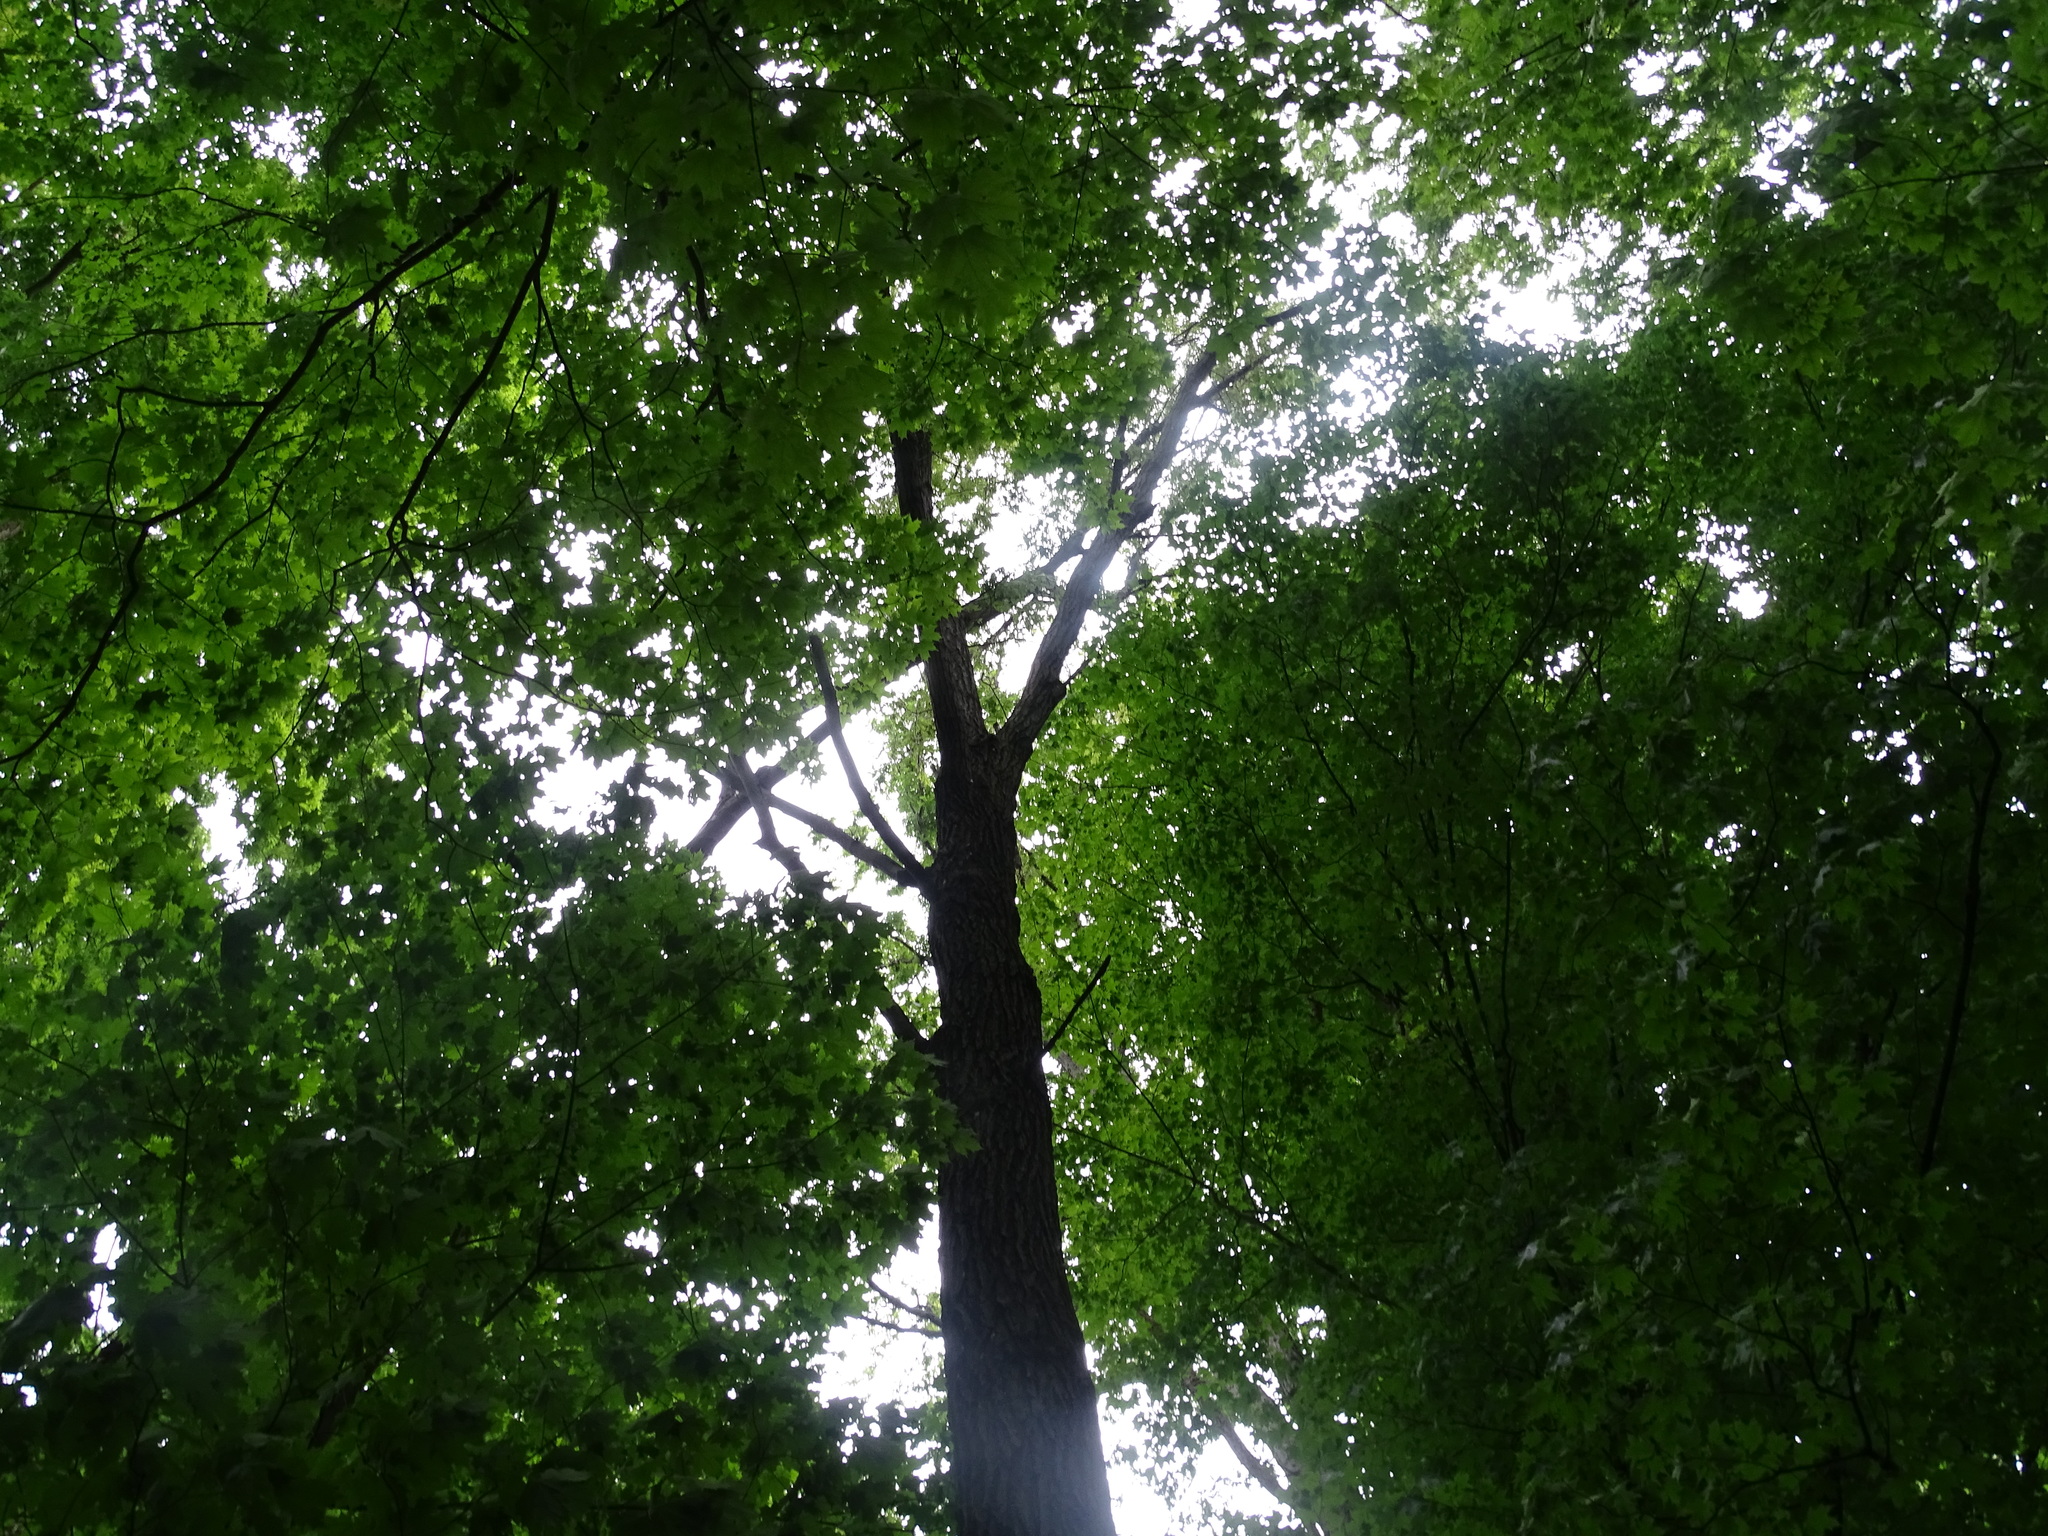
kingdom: Plantae
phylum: Tracheophyta
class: Magnoliopsida
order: Fagales
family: Fagaceae
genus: Quercus
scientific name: Quercus velutina
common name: Black oak
